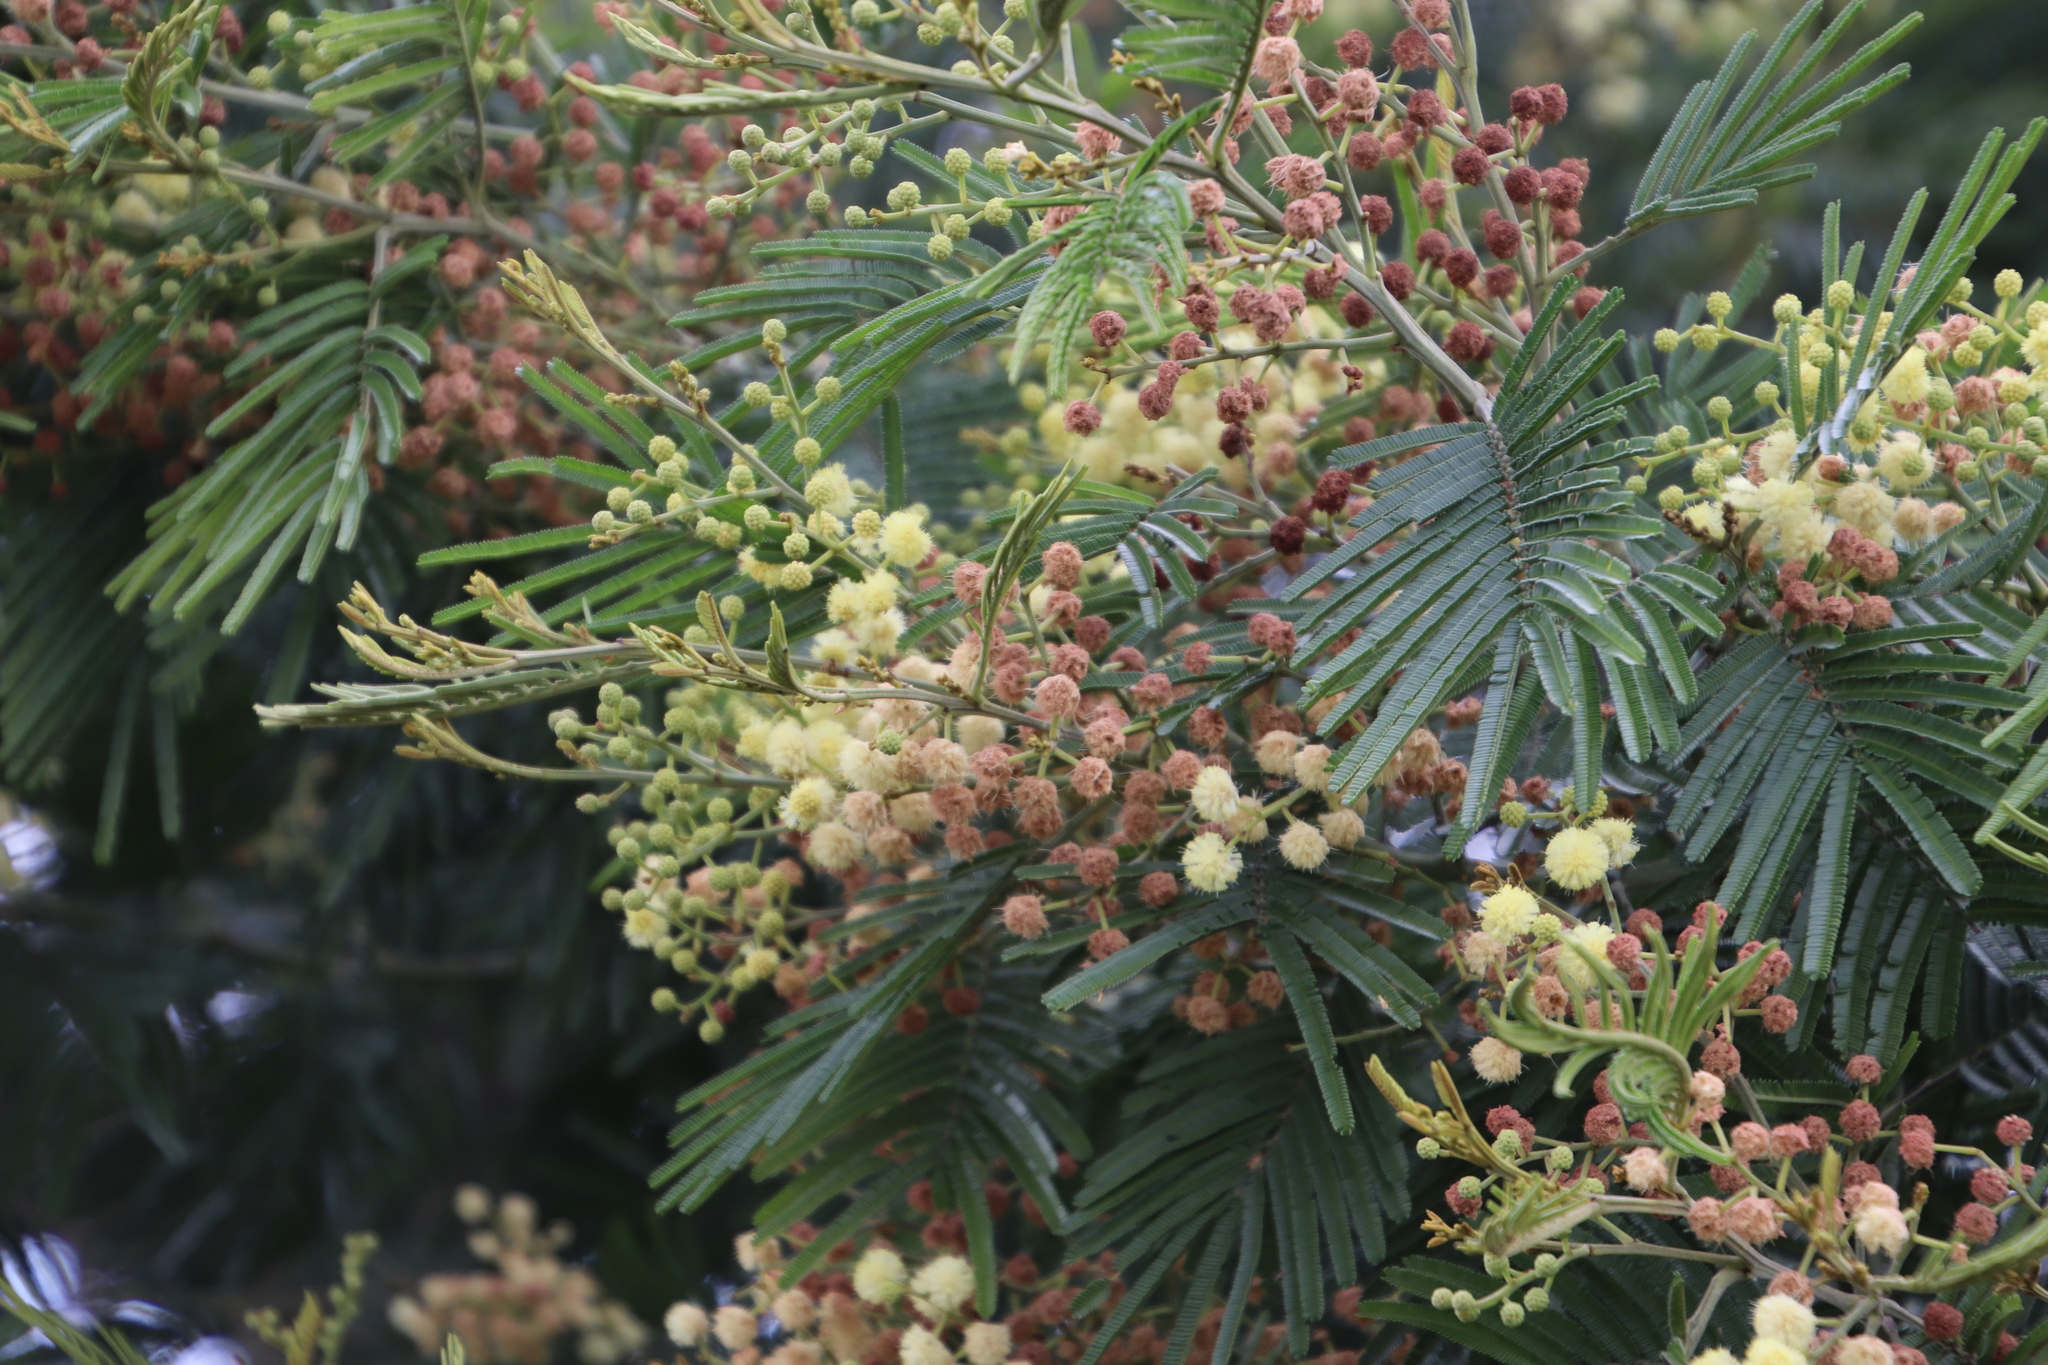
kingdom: Plantae
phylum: Tracheophyta
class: Magnoliopsida
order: Fabales
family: Fabaceae
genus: Acacia
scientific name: Acacia mearnsii
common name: Black wattle
